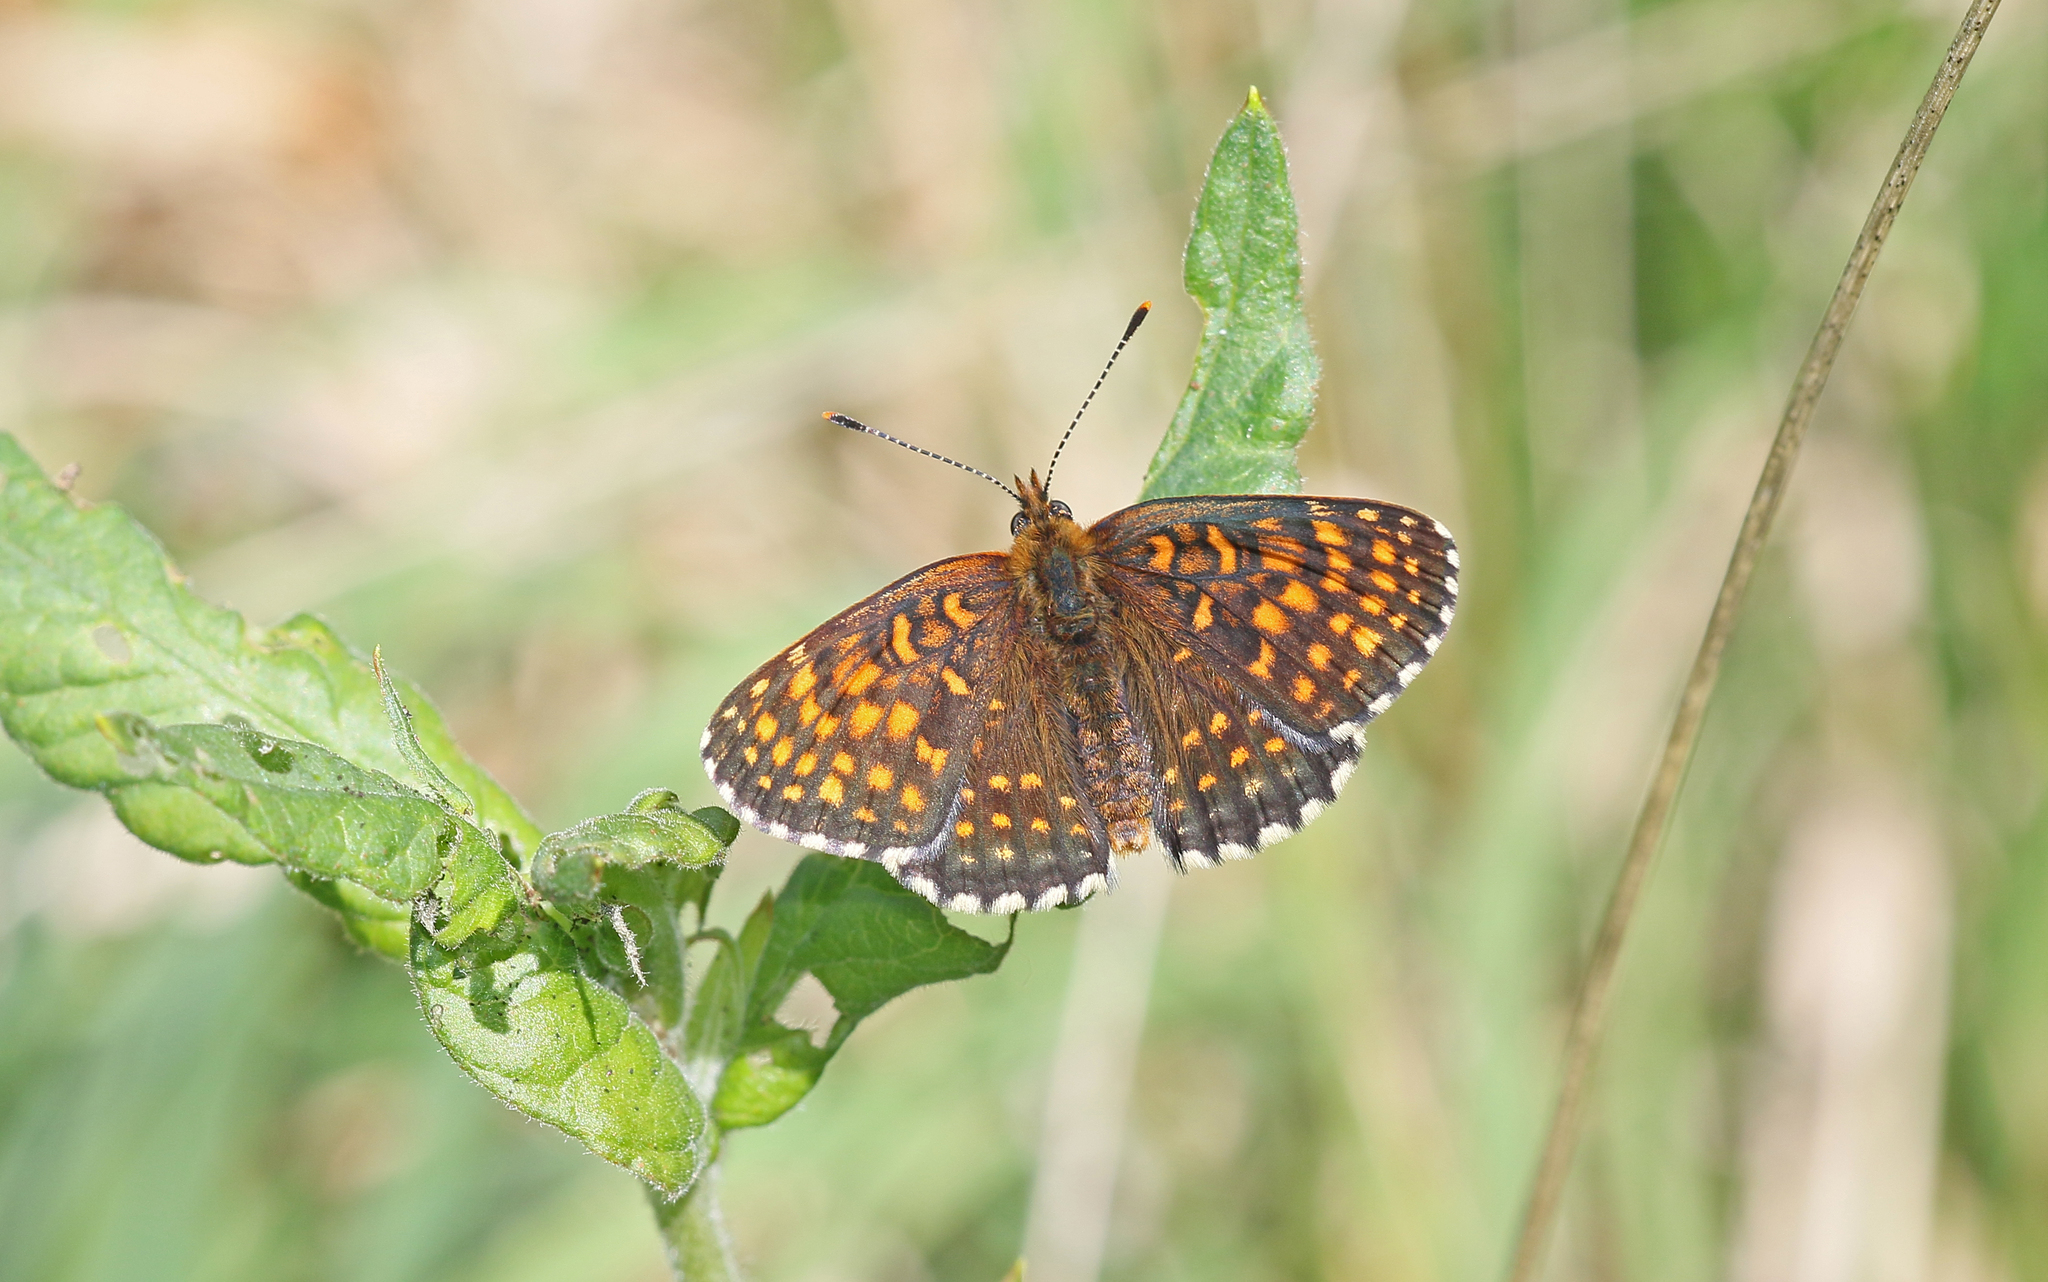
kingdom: Animalia
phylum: Arthropoda
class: Insecta
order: Lepidoptera
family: Nymphalidae
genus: Melitaea
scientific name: Melitaea diamina
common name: False heath fritillary
